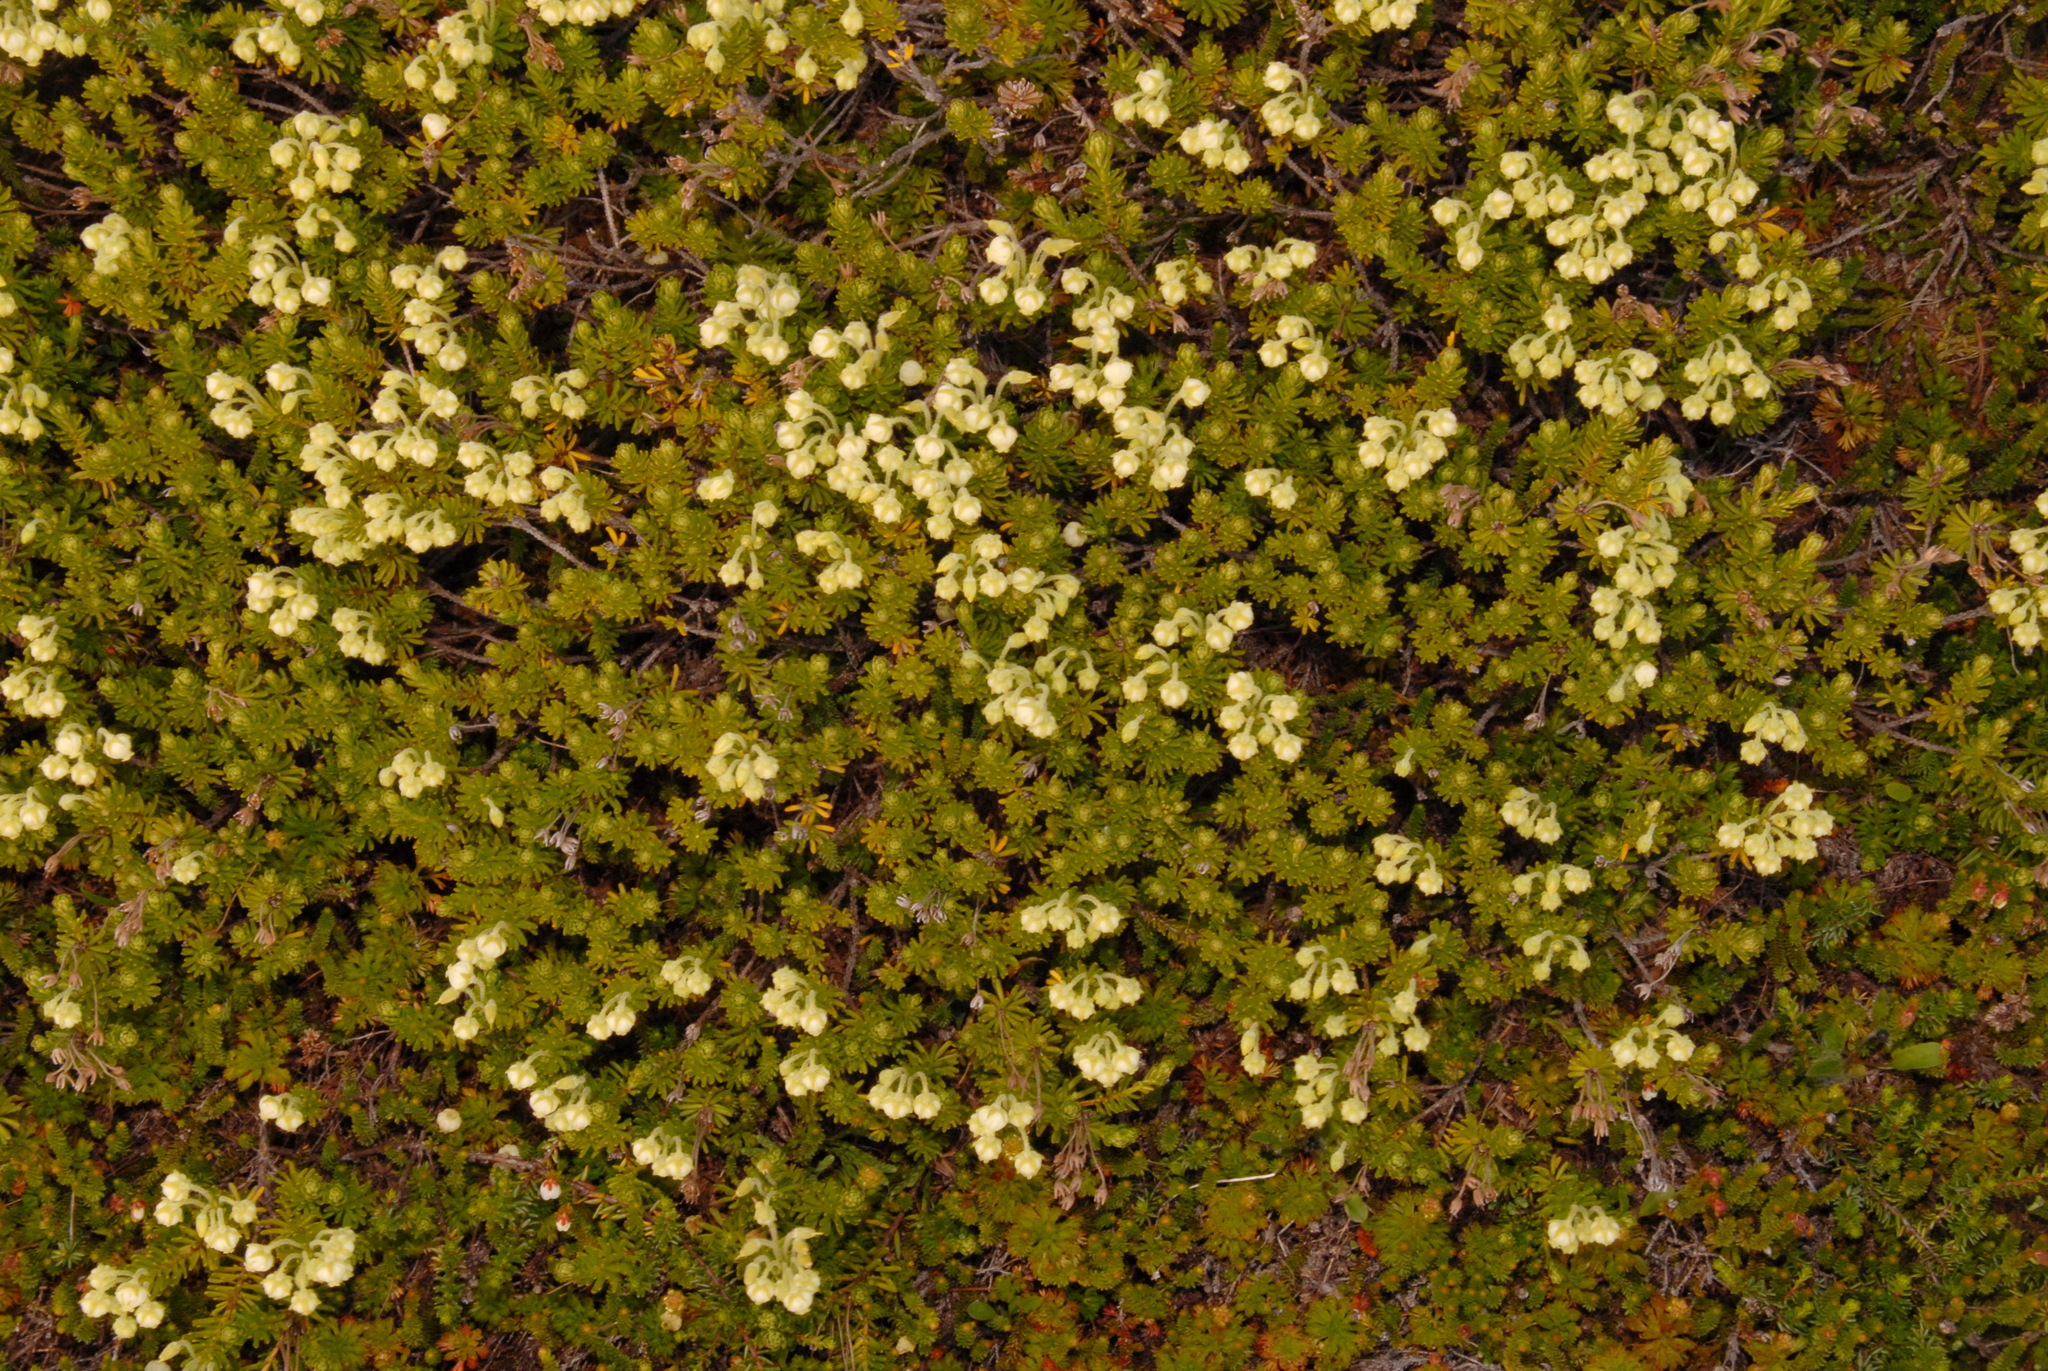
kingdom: Plantae
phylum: Tracheophyta
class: Magnoliopsida
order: Ericales
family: Ericaceae
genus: Phyllodoce
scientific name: Phyllodoce glanduliflora
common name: Cream mountain heather
